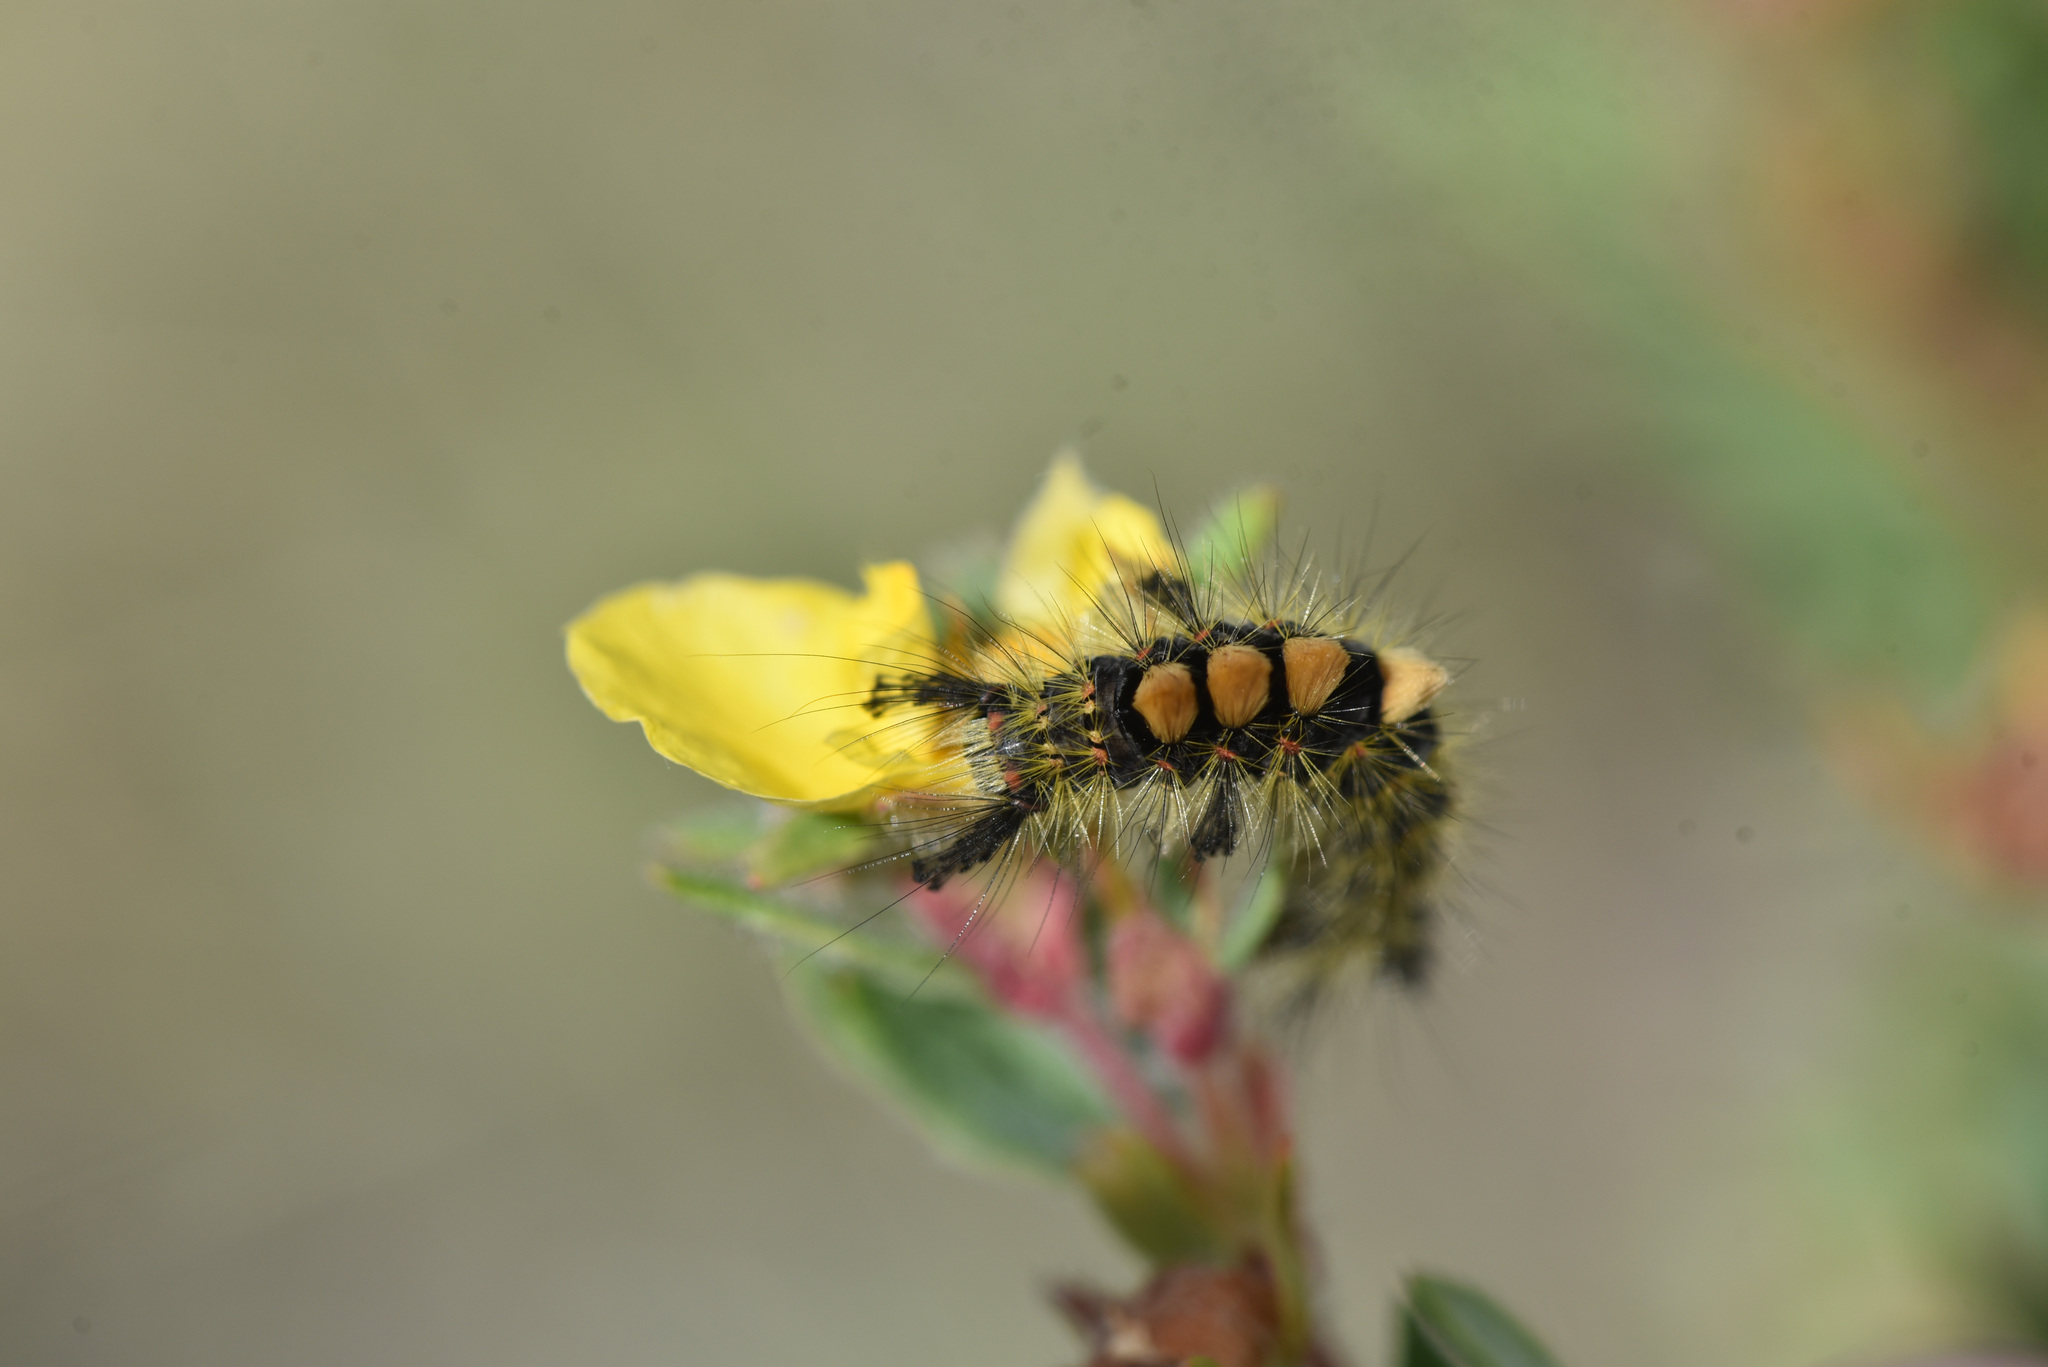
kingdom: Animalia
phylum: Arthropoda
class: Insecta
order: Lepidoptera
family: Erebidae
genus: Orgyia
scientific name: Orgyia antiqua
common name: Vapourer
